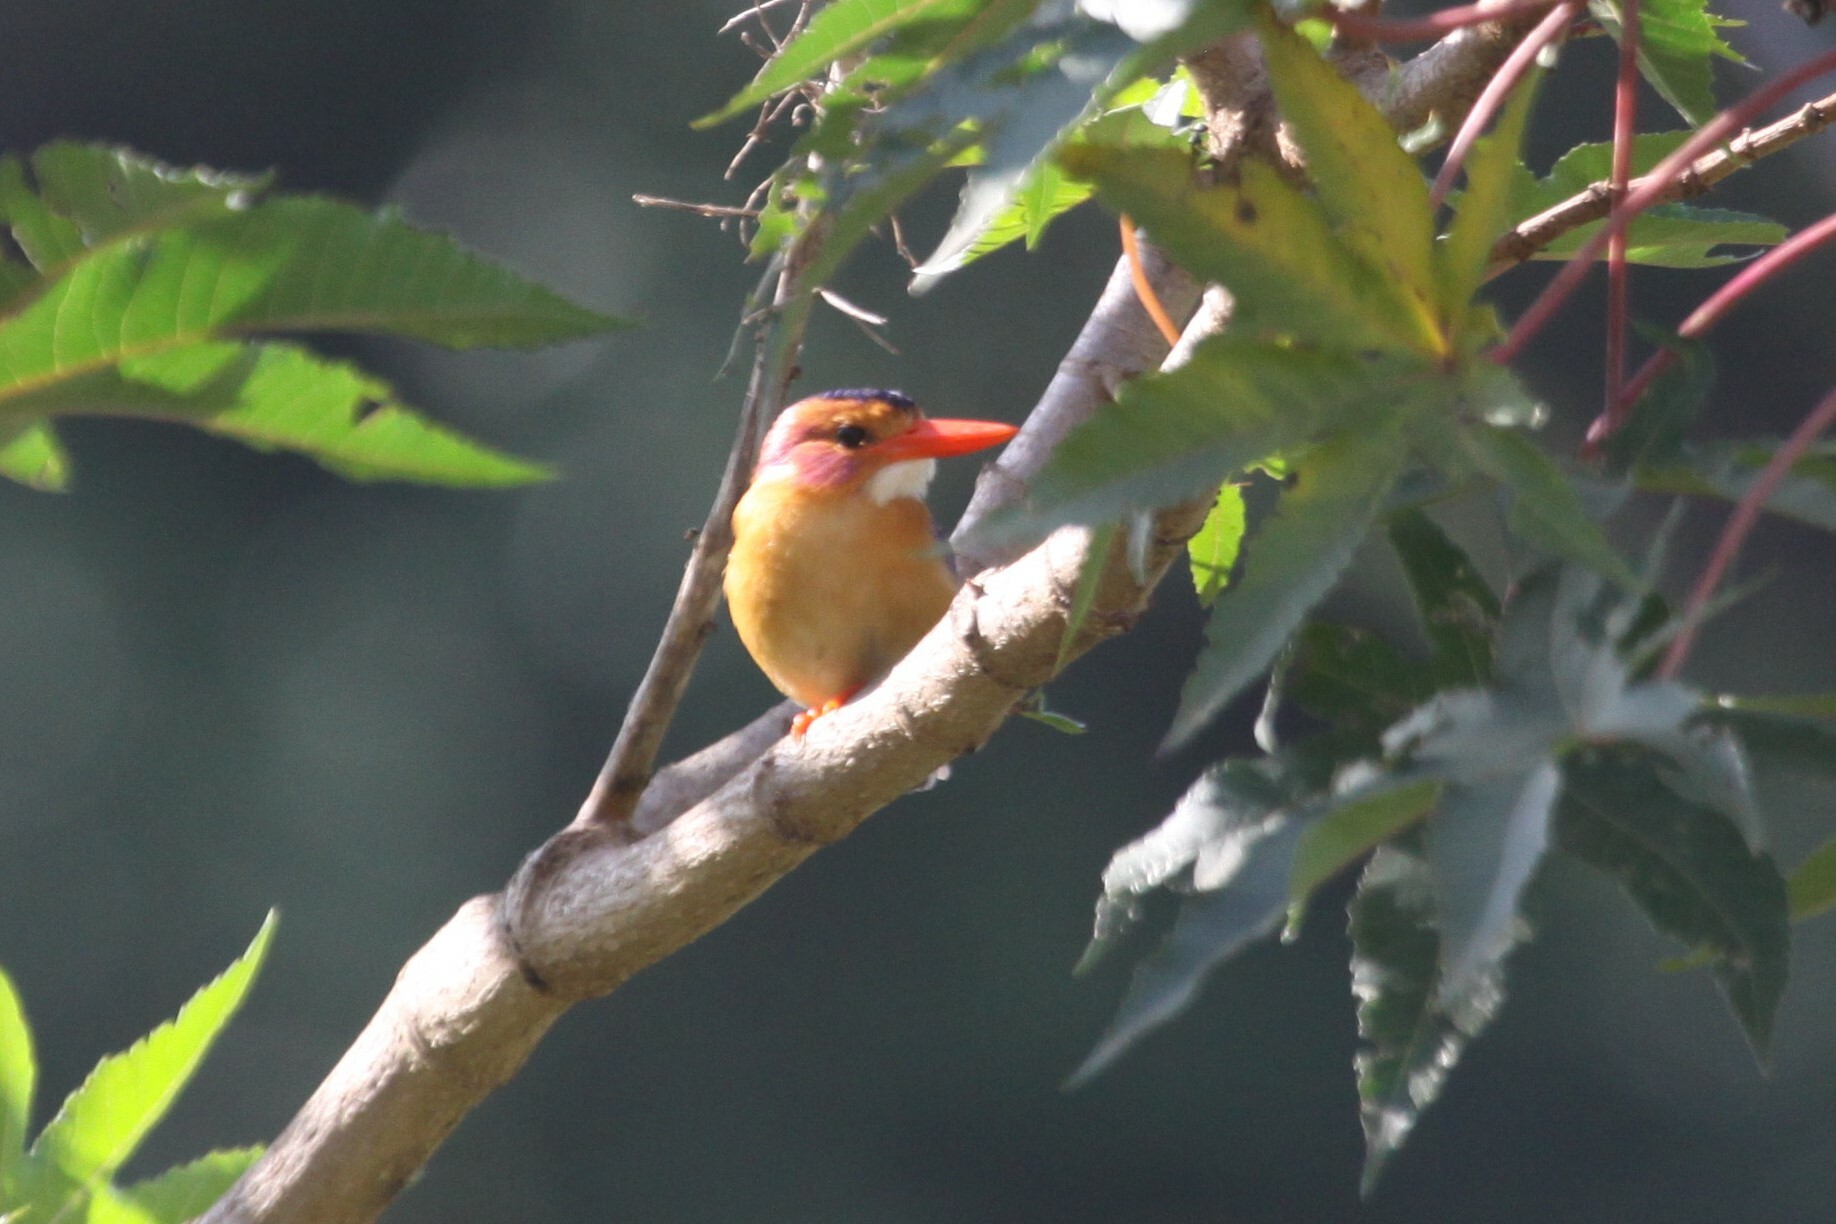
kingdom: Animalia
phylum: Chordata
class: Aves
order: Coraciiformes
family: Alcedinidae
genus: Ispidina
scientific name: Ispidina picta
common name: African pygmy-kingfisher
